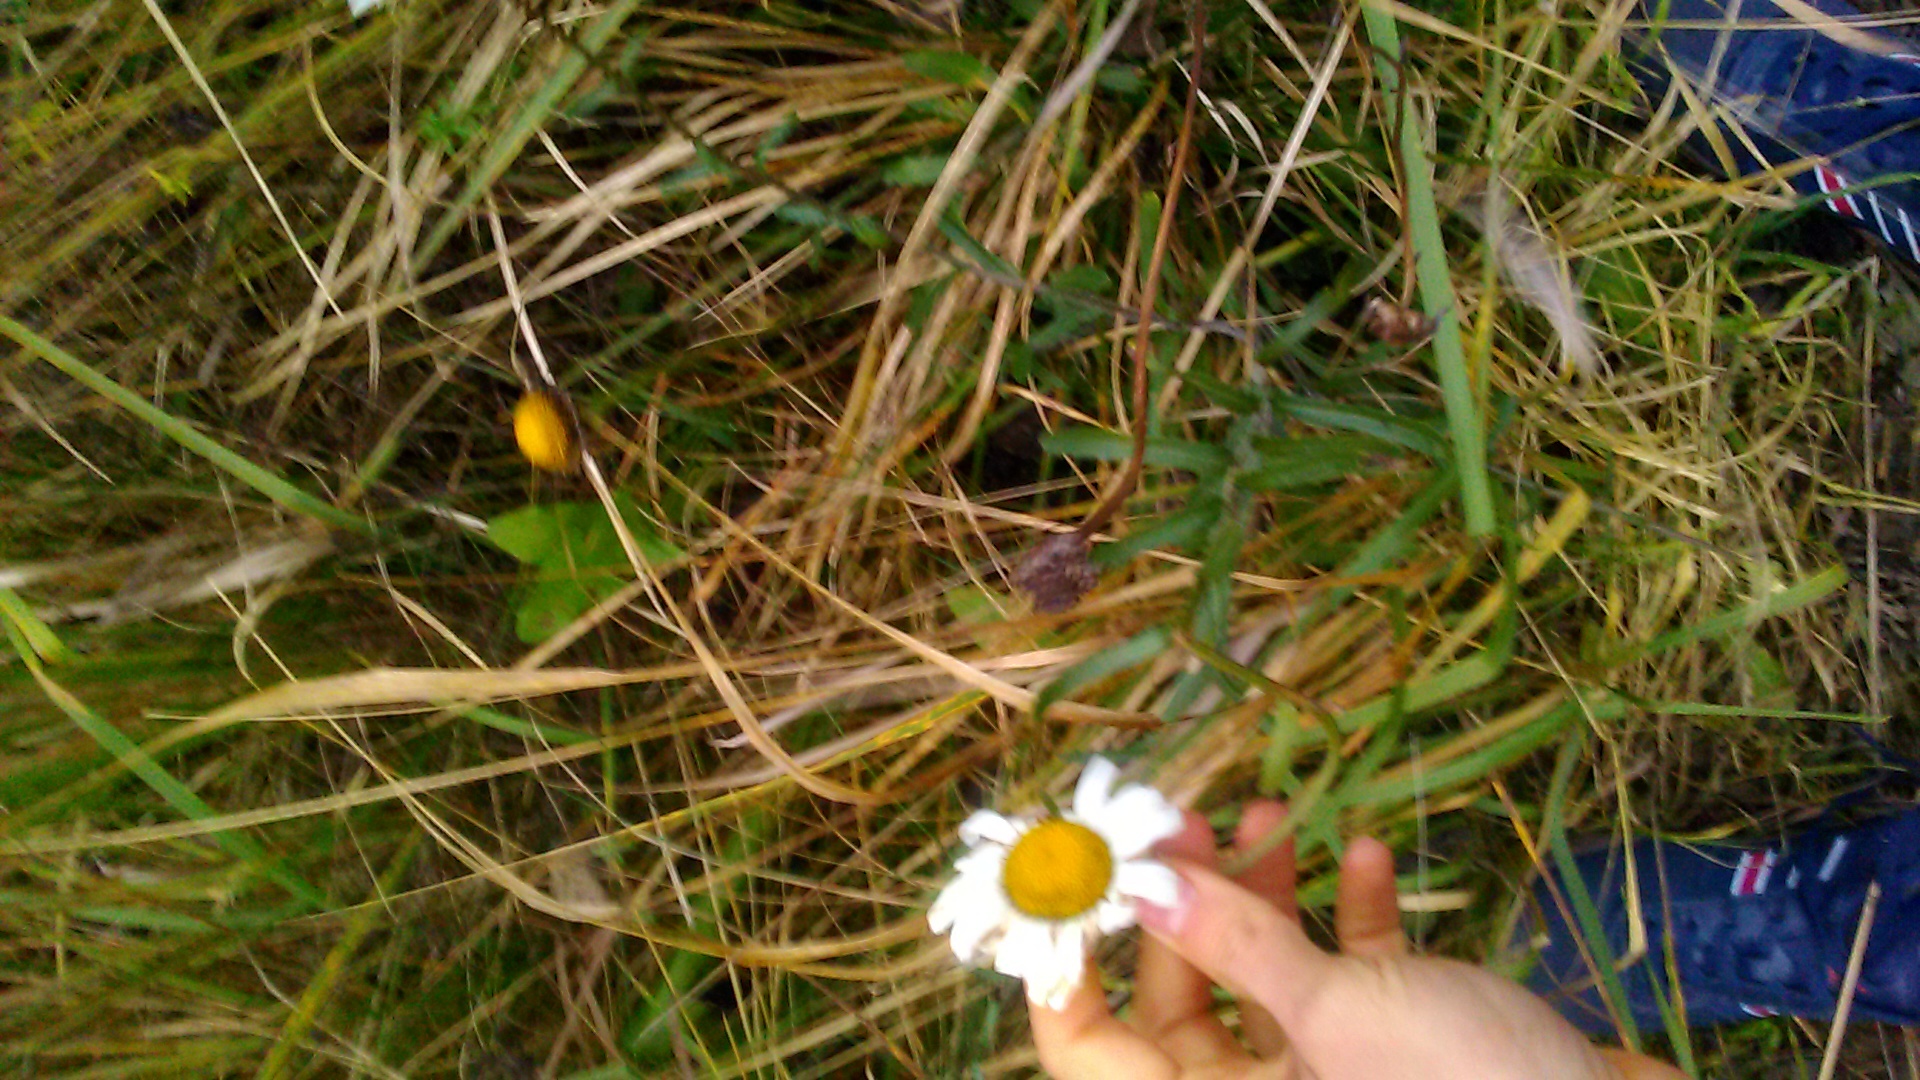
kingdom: Plantae
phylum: Tracheophyta
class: Magnoliopsida
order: Asterales
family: Asteraceae
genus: Leucanthemum
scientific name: Leucanthemum vulgare
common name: Oxeye daisy
